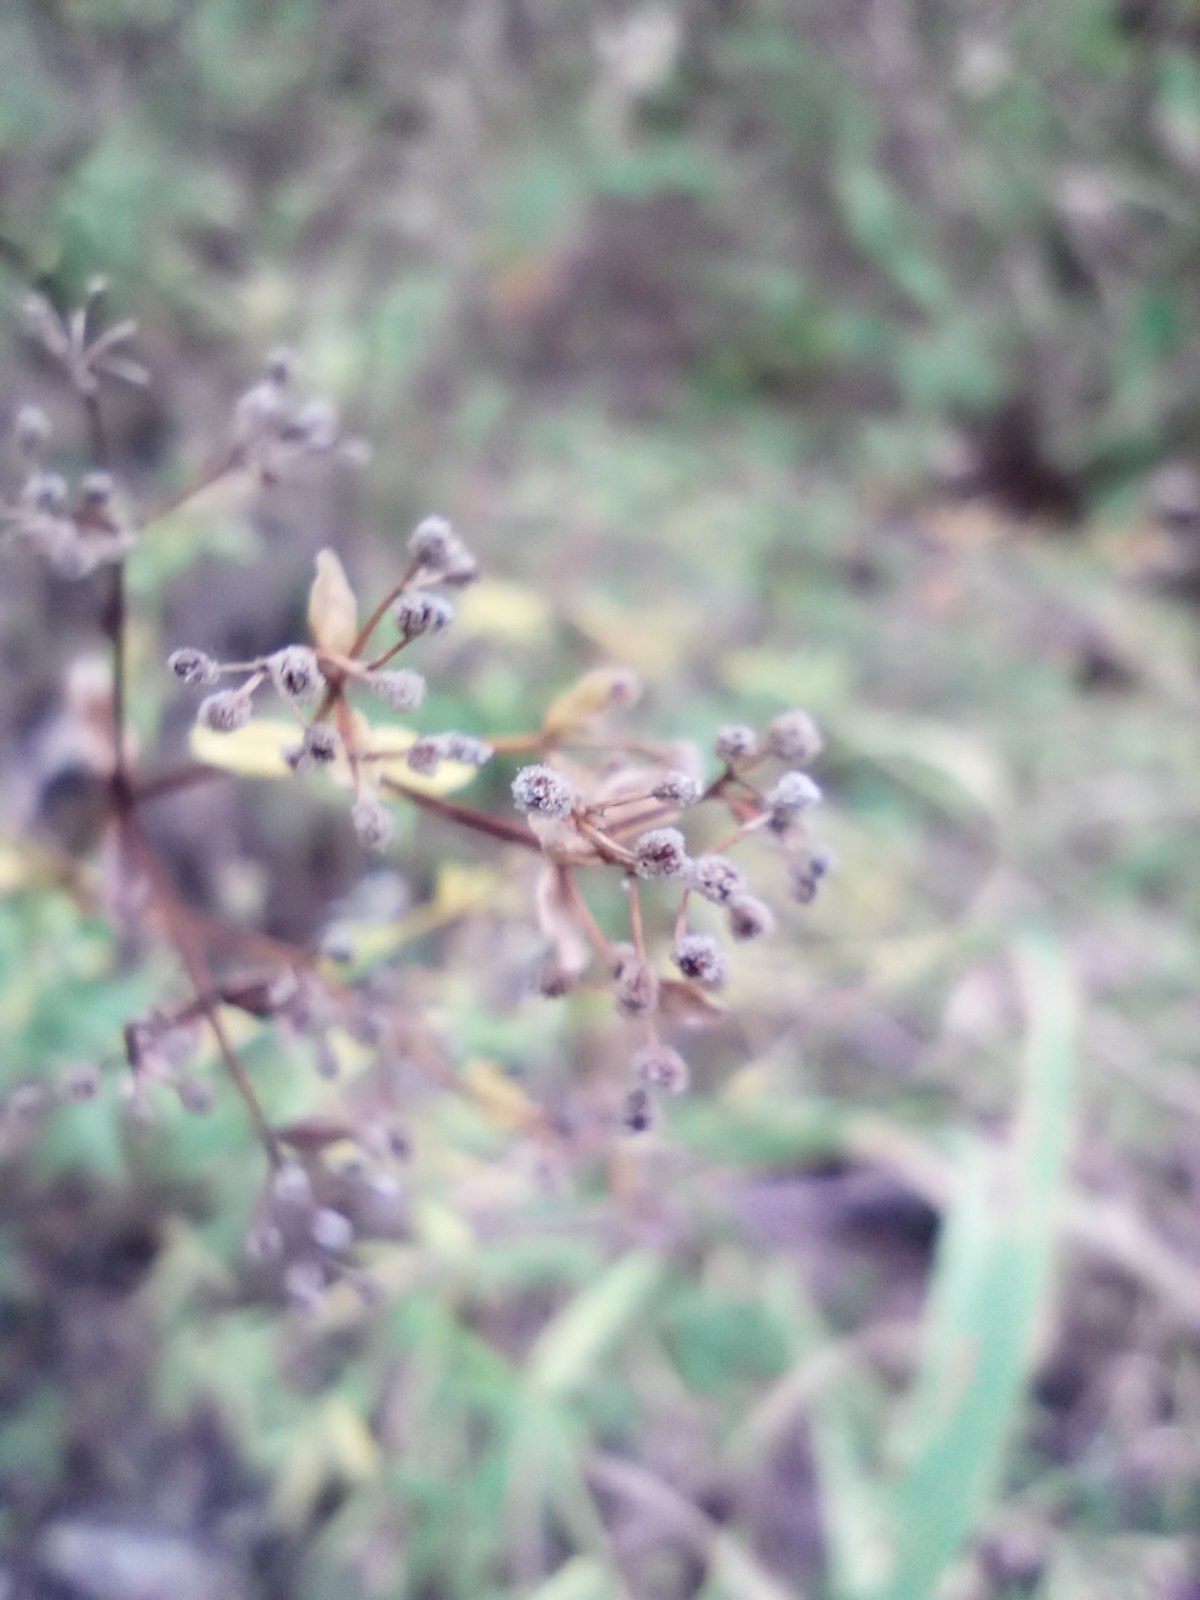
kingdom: Plantae
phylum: Tracheophyta
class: Magnoliopsida
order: Gentianales
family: Rubiaceae
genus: Galium
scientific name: Galium boreale
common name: Northern bedstraw
